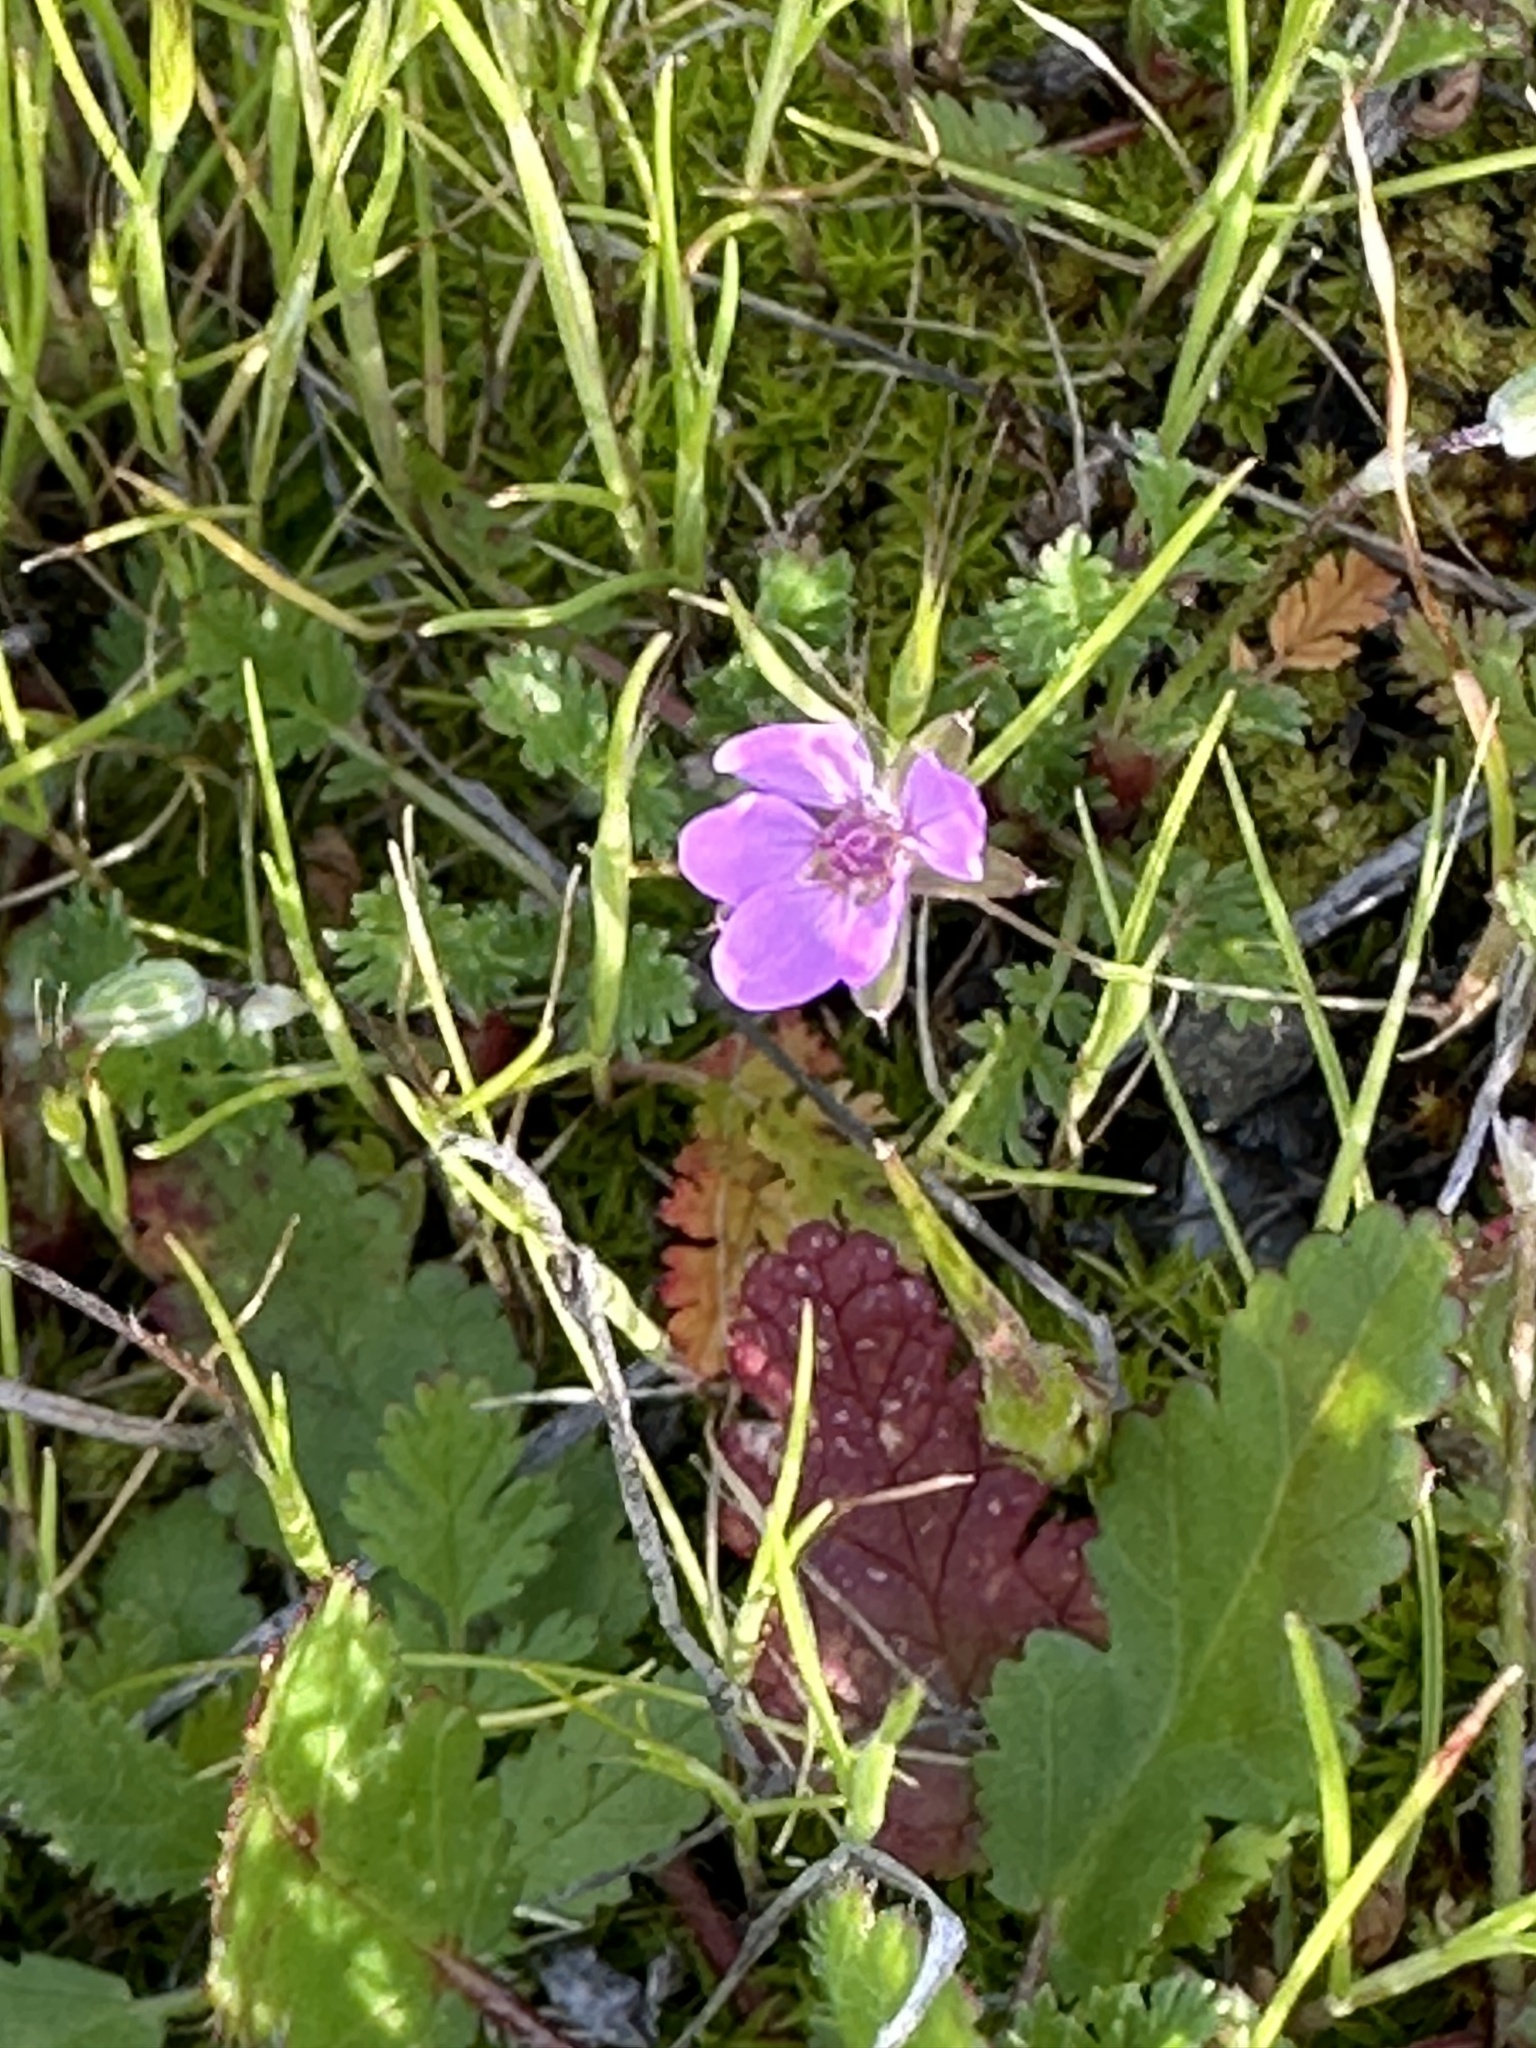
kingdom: Plantae
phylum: Tracheophyta
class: Magnoliopsida
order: Geraniales
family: Geraniaceae
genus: Erodium
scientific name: Erodium cicutarium
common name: Common stork's-bill
